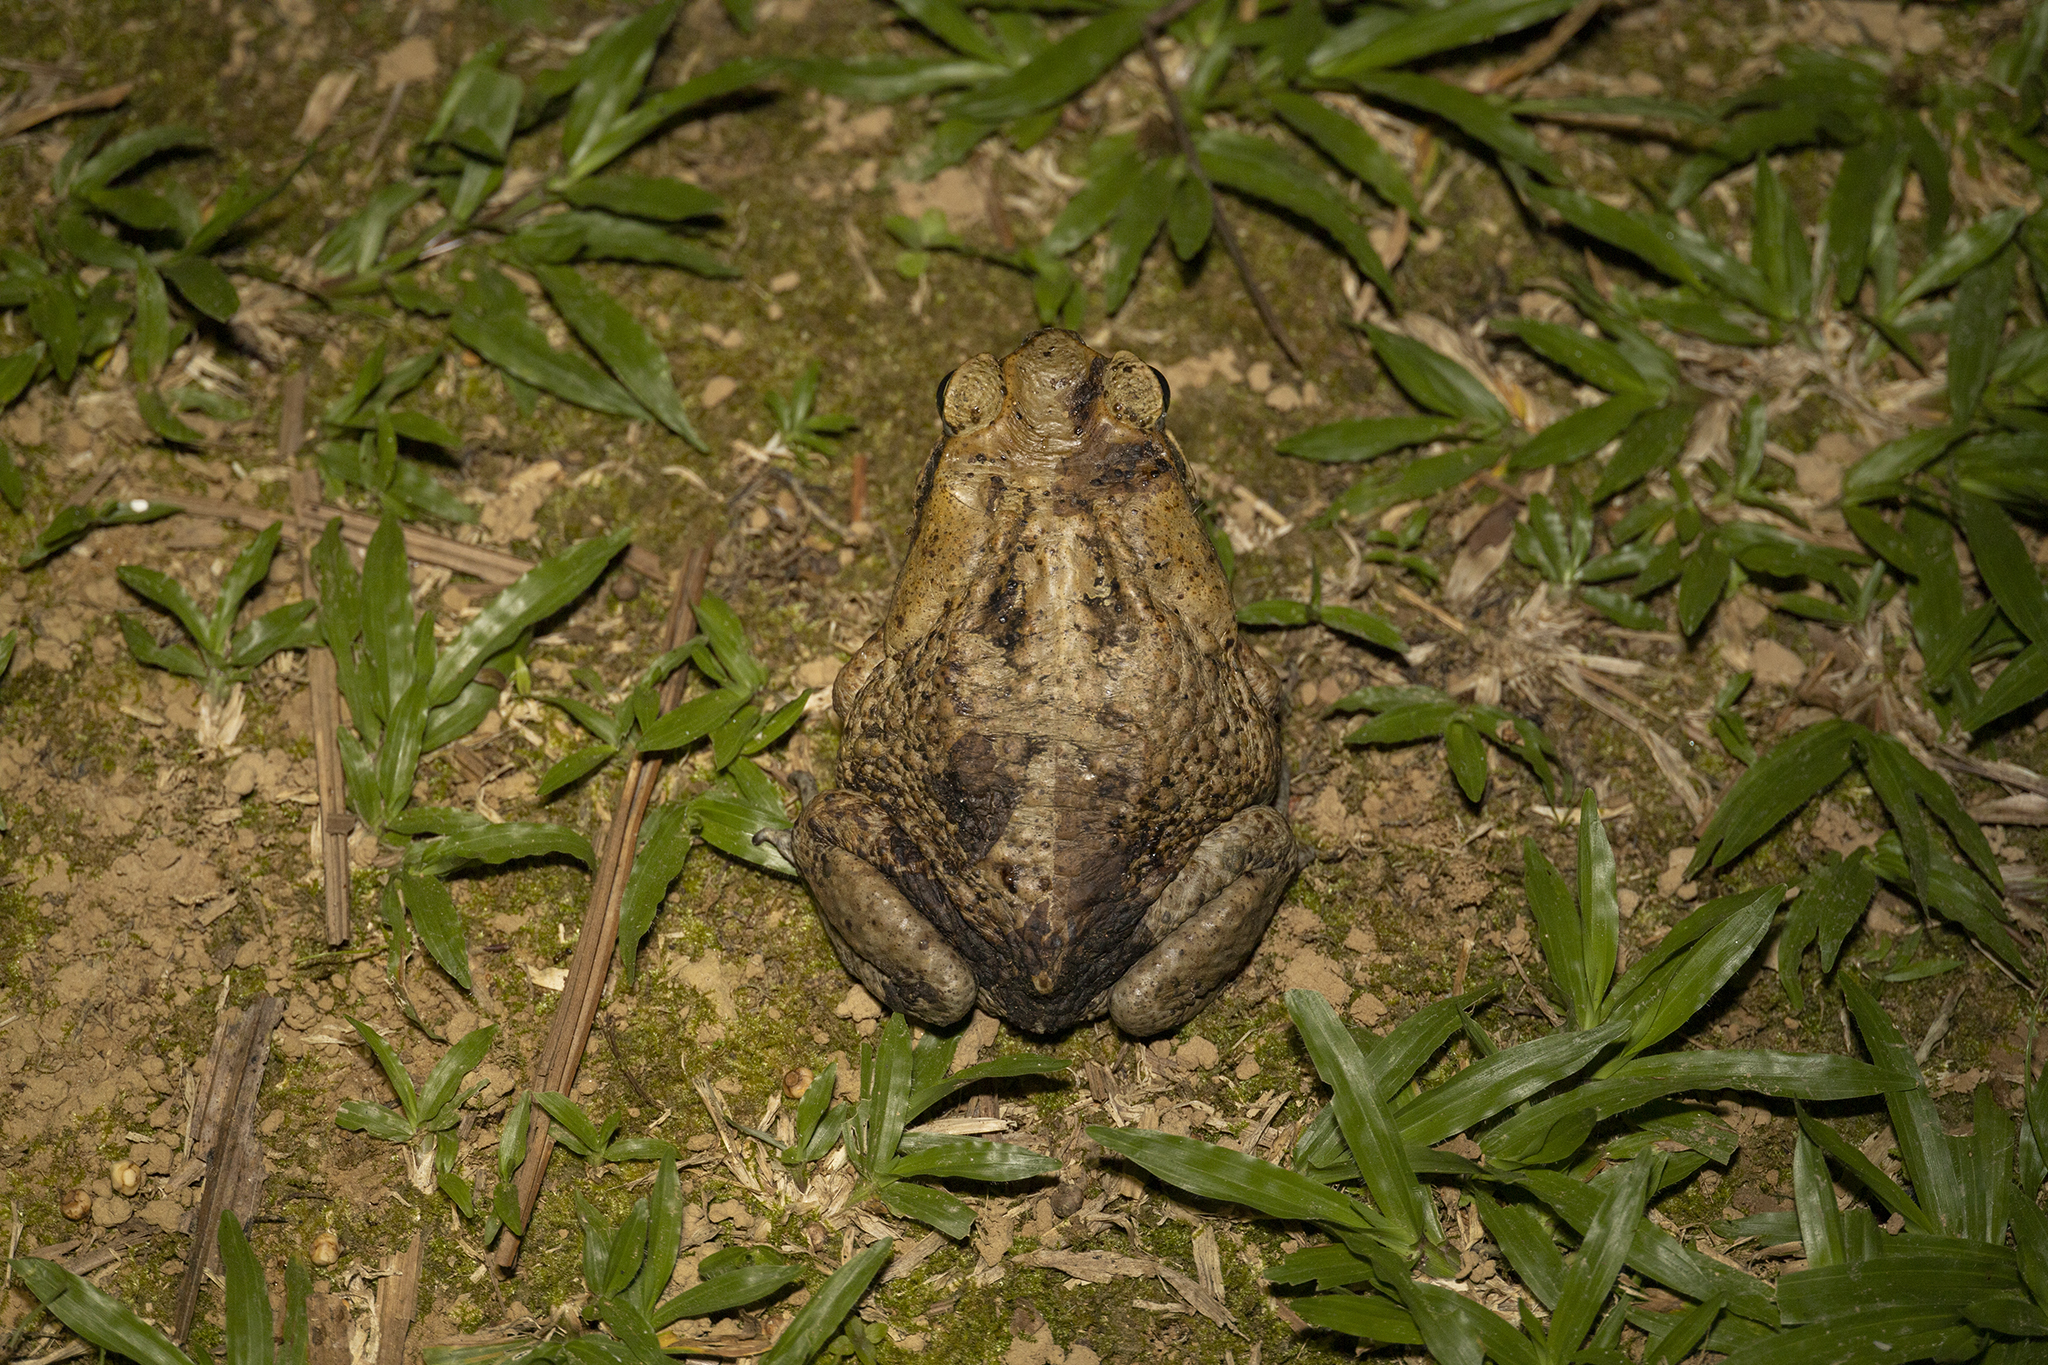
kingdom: Animalia
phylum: Chordata
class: Amphibia
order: Anura
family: Bufonidae
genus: Rhinella
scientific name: Rhinella marina
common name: Cane toad
